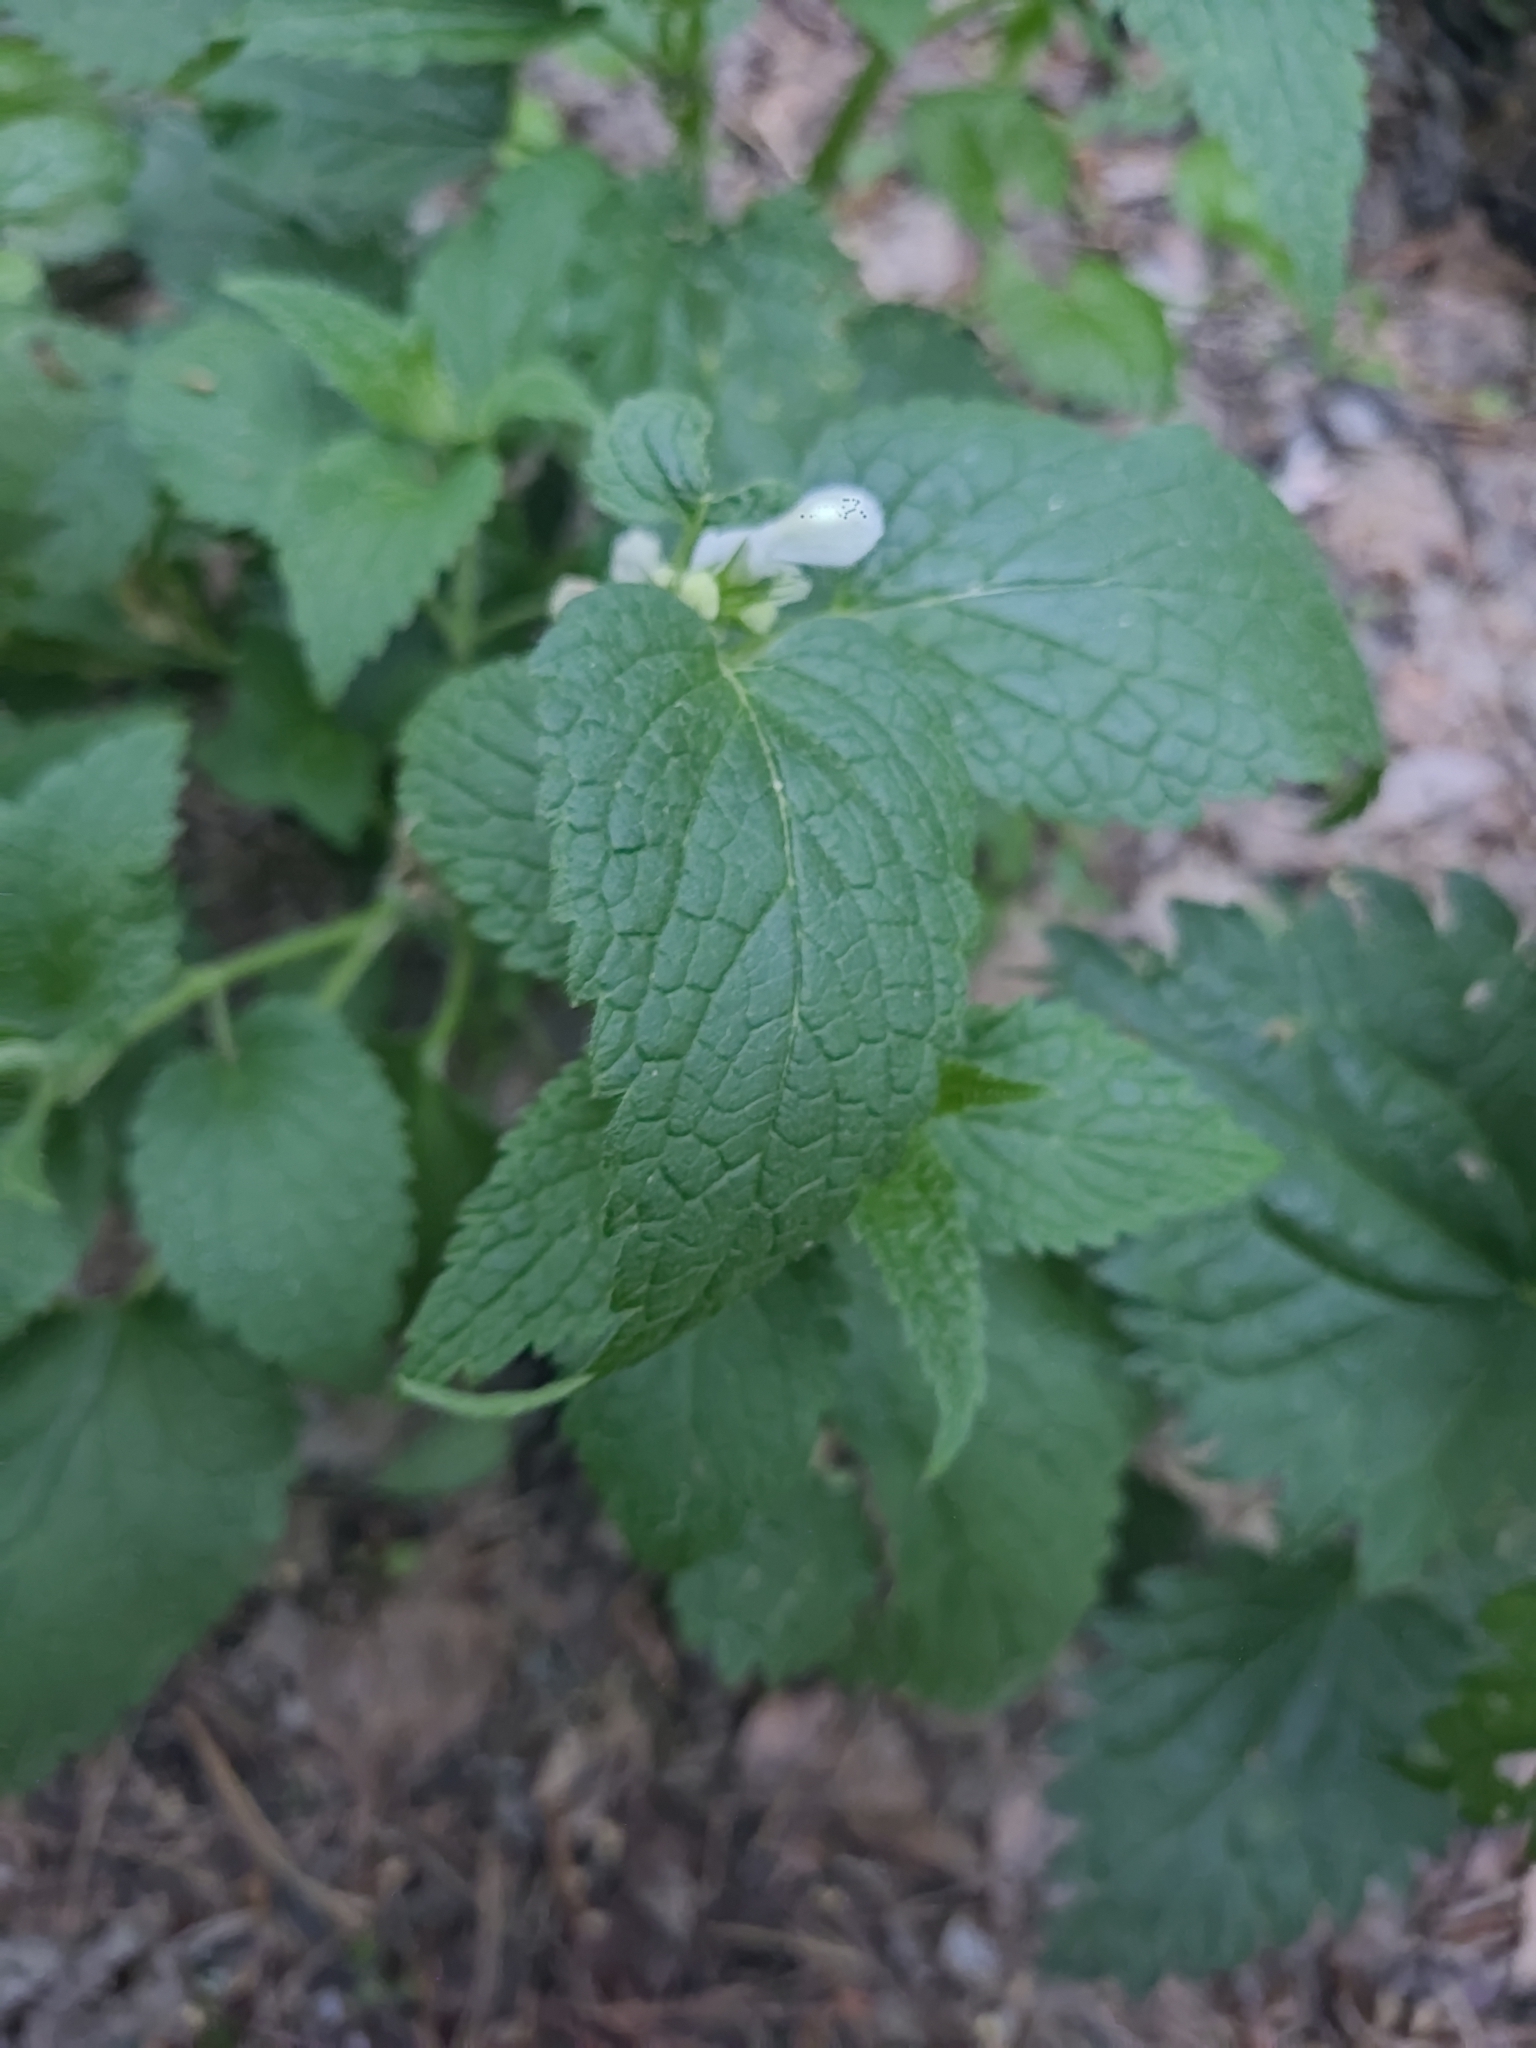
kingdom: Plantae
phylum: Tracheophyta
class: Magnoliopsida
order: Lamiales
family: Lamiaceae
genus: Lamium
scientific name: Lamium album
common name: White dead-nettle
